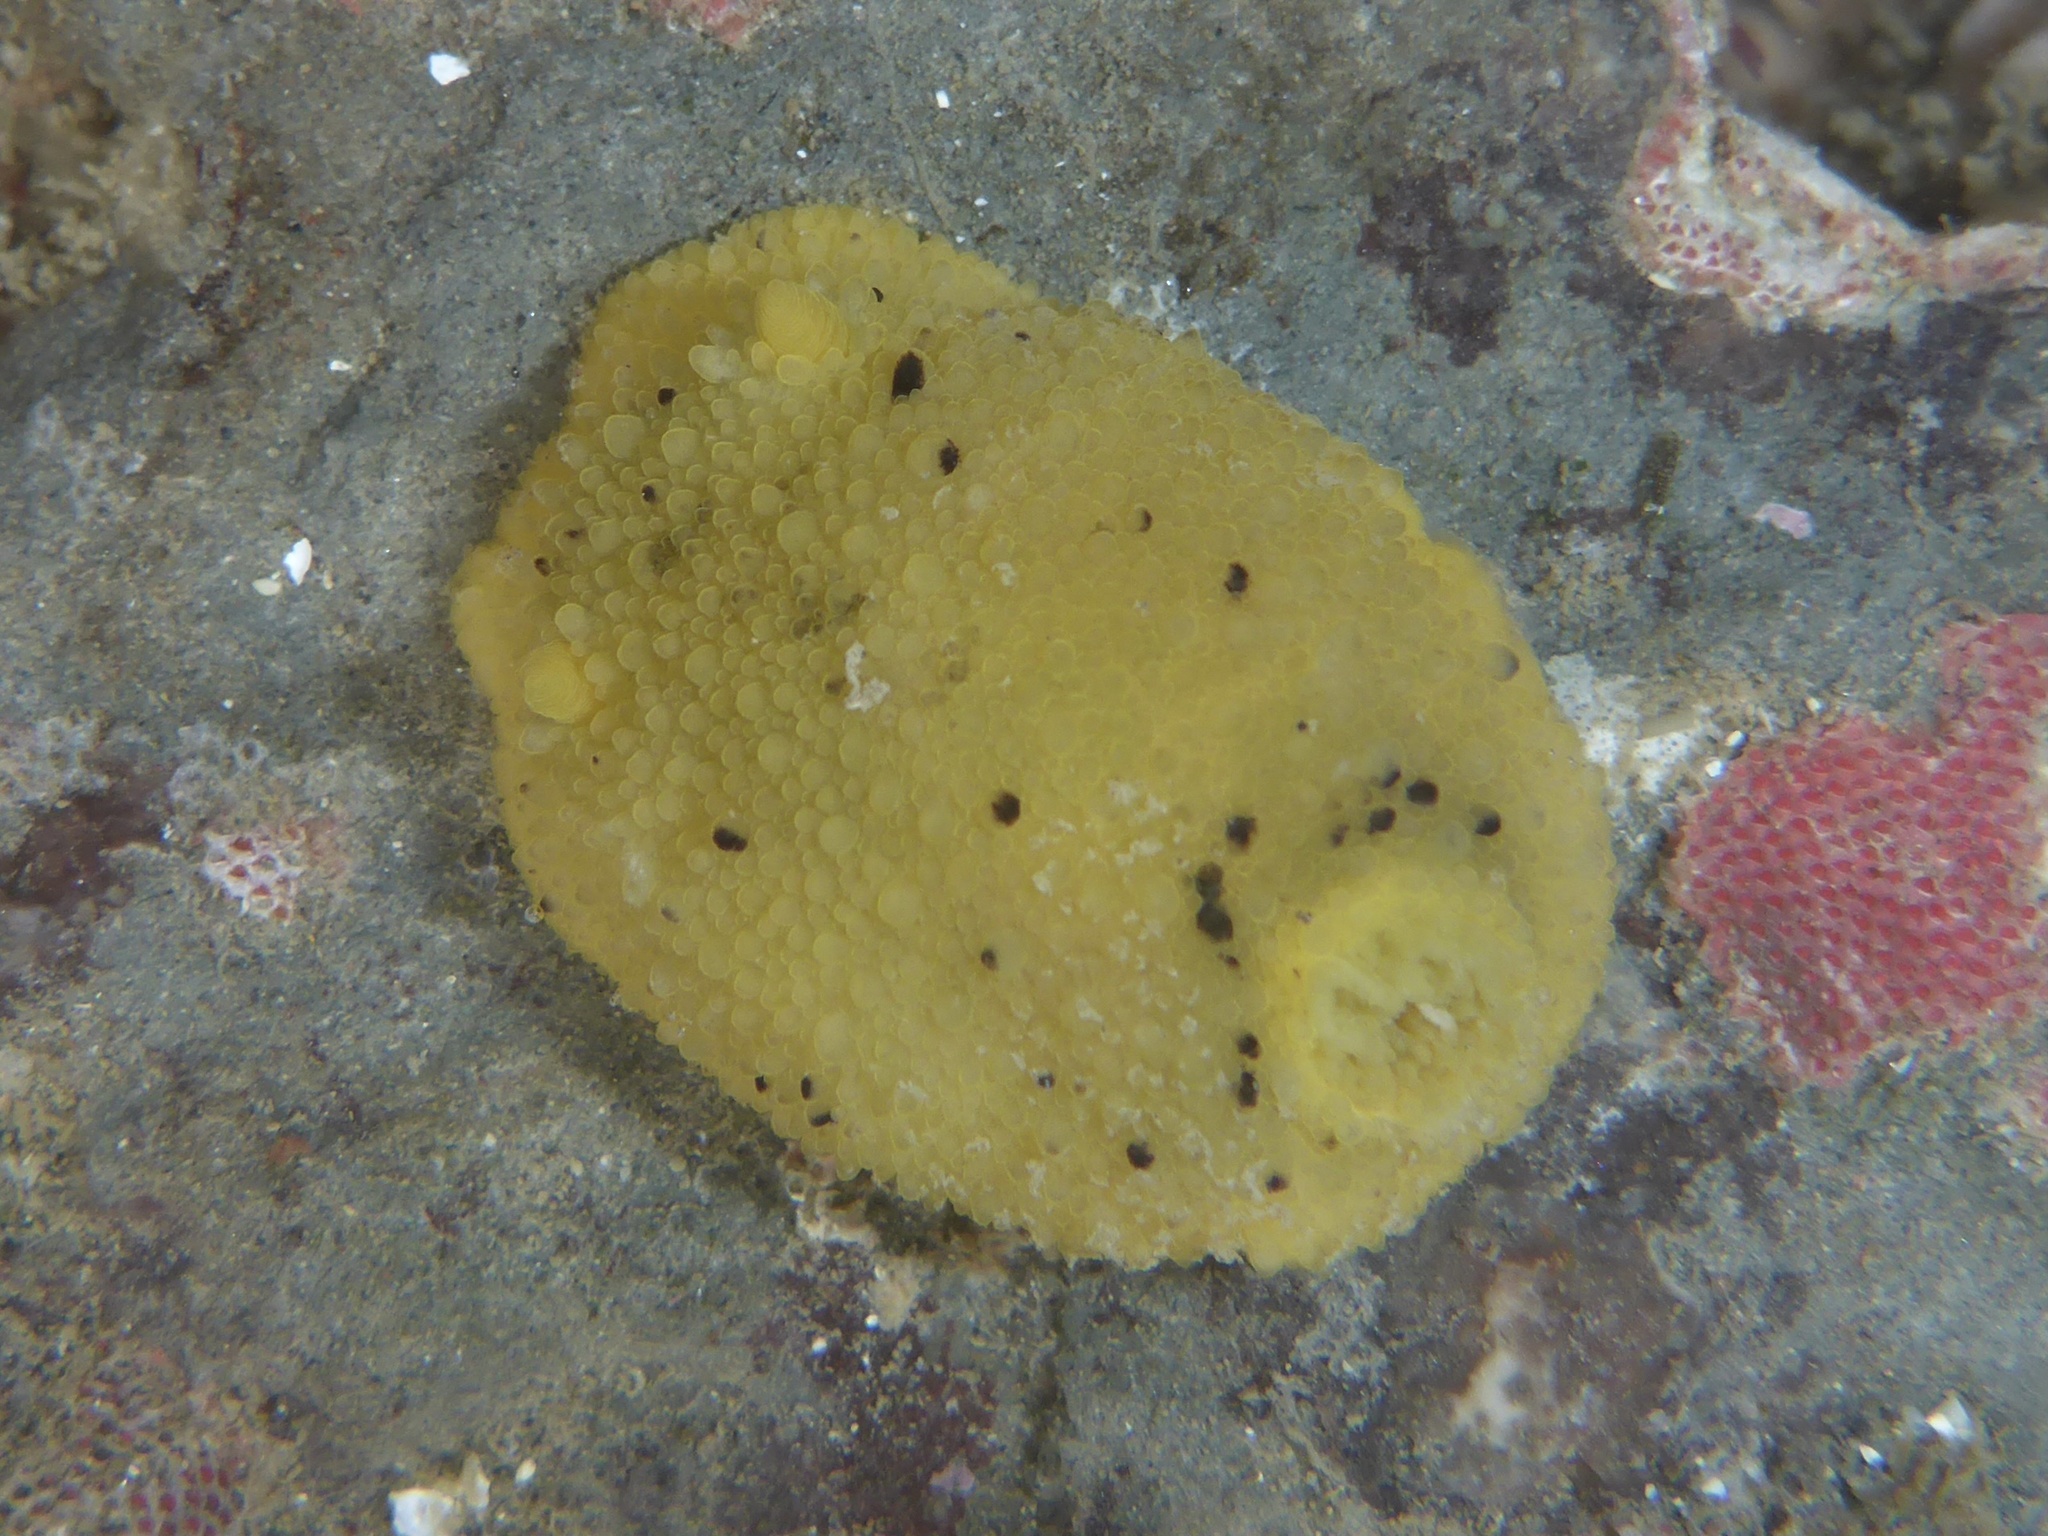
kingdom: Animalia
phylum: Mollusca
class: Gastropoda
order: Nudibranchia
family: Dorididae
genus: Doris
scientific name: Doris montereyensis
